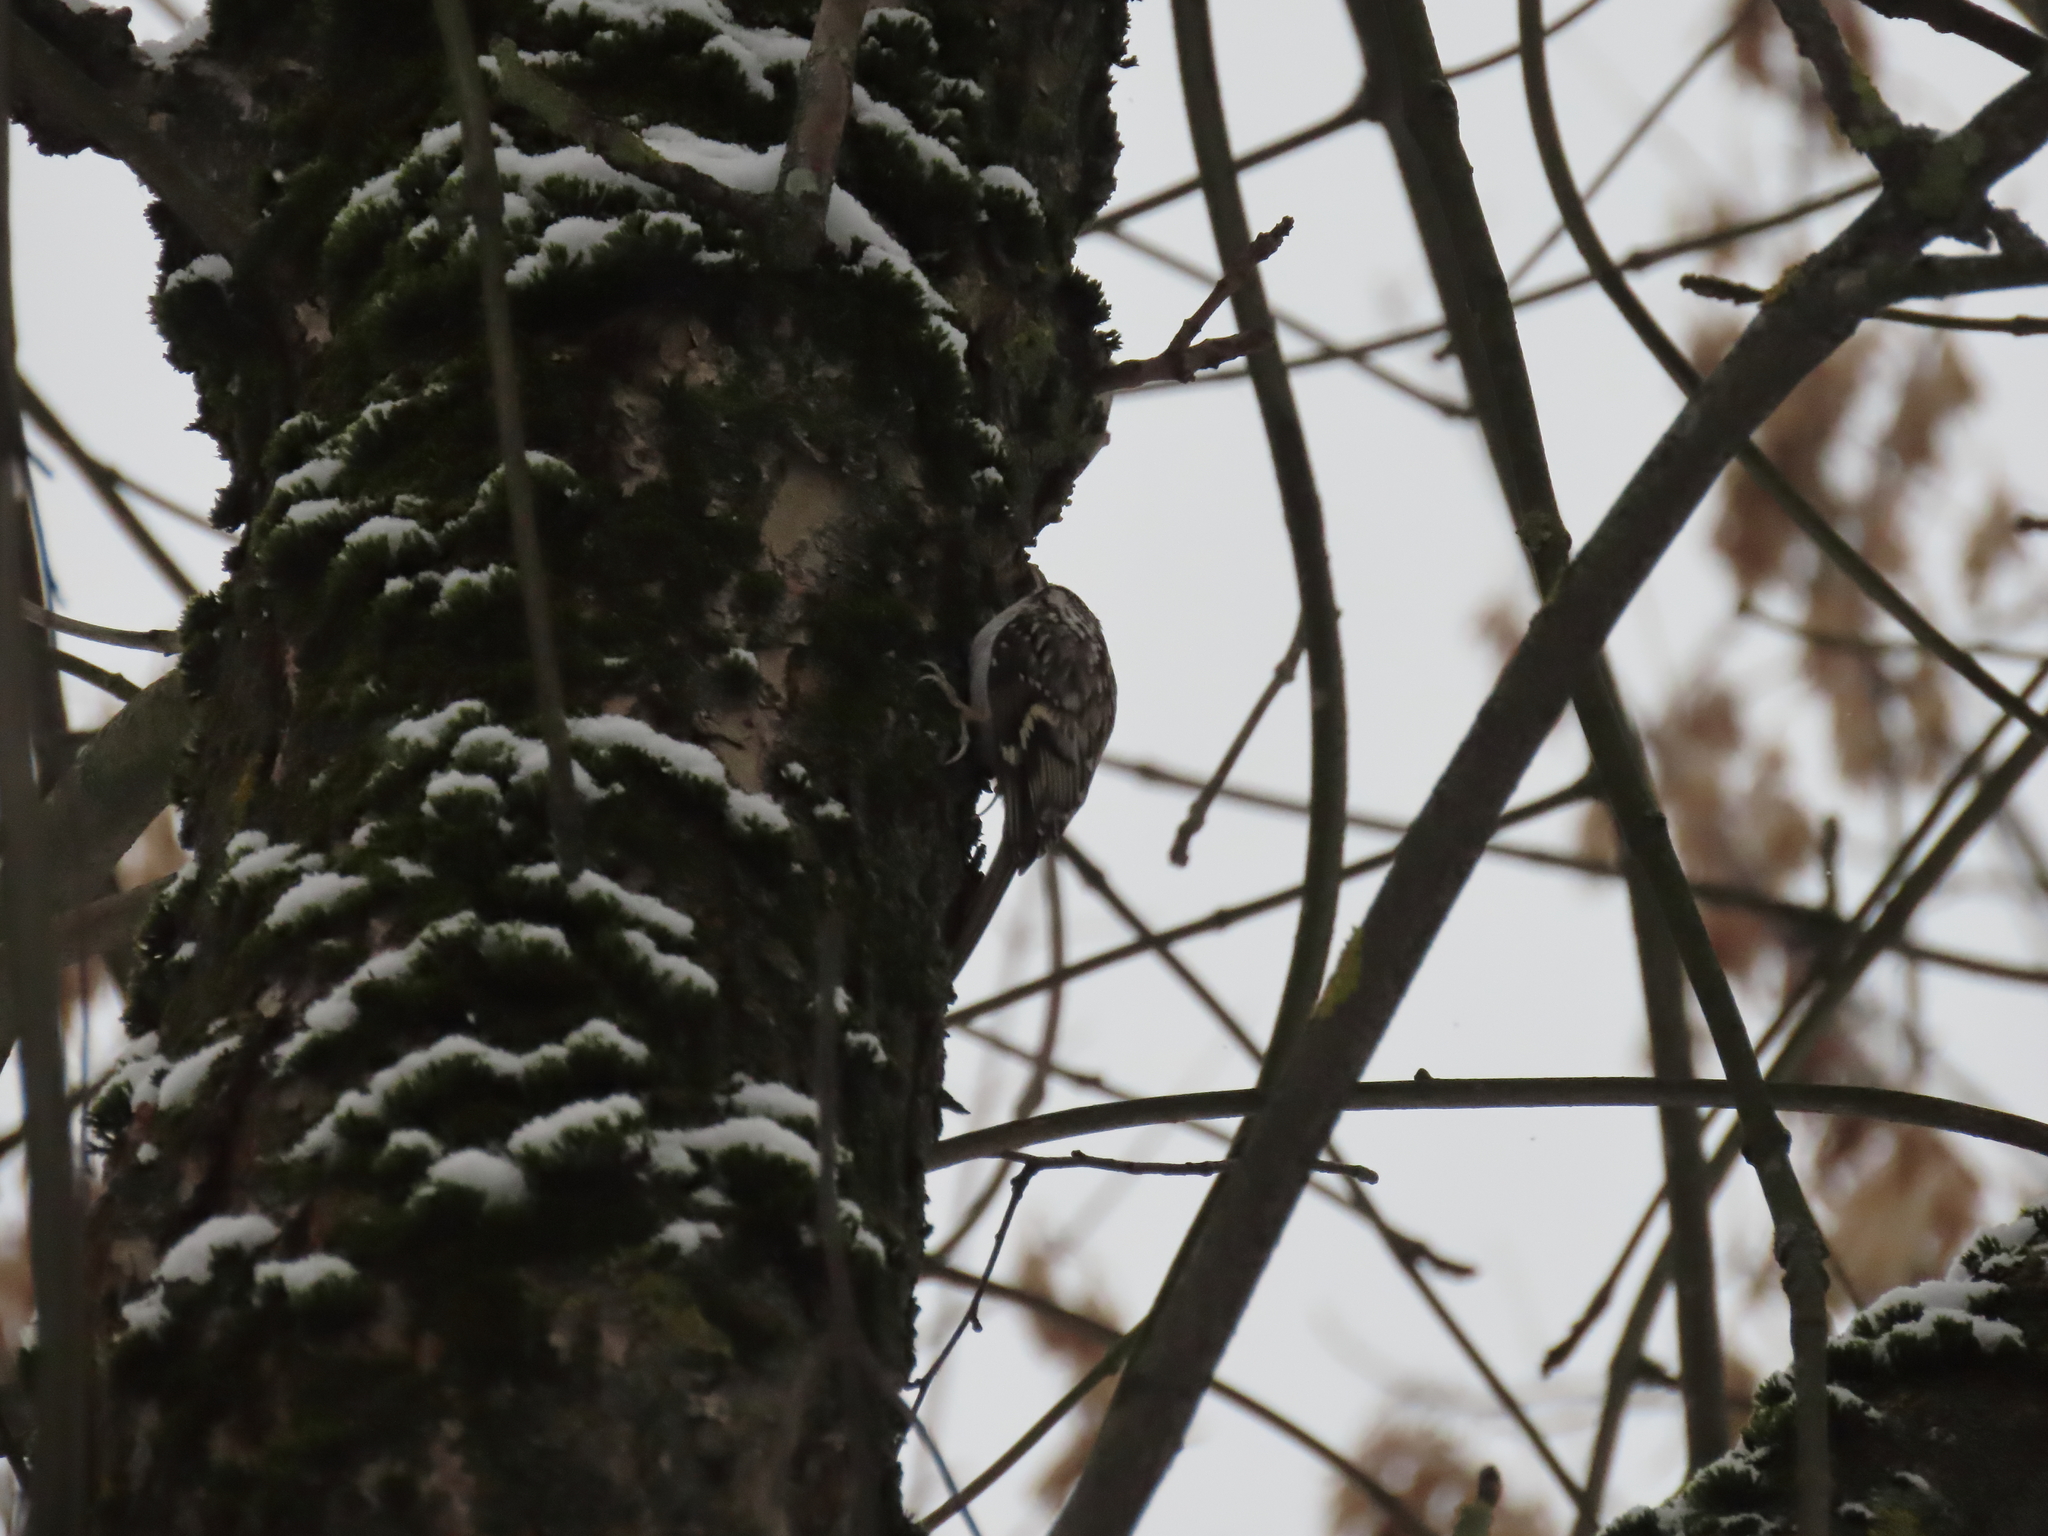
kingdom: Animalia
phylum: Chordata
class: Aves
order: Passeriformes
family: Certhiidae
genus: Certhia
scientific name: Certhia familiaris
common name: Eurasian treecreeper
